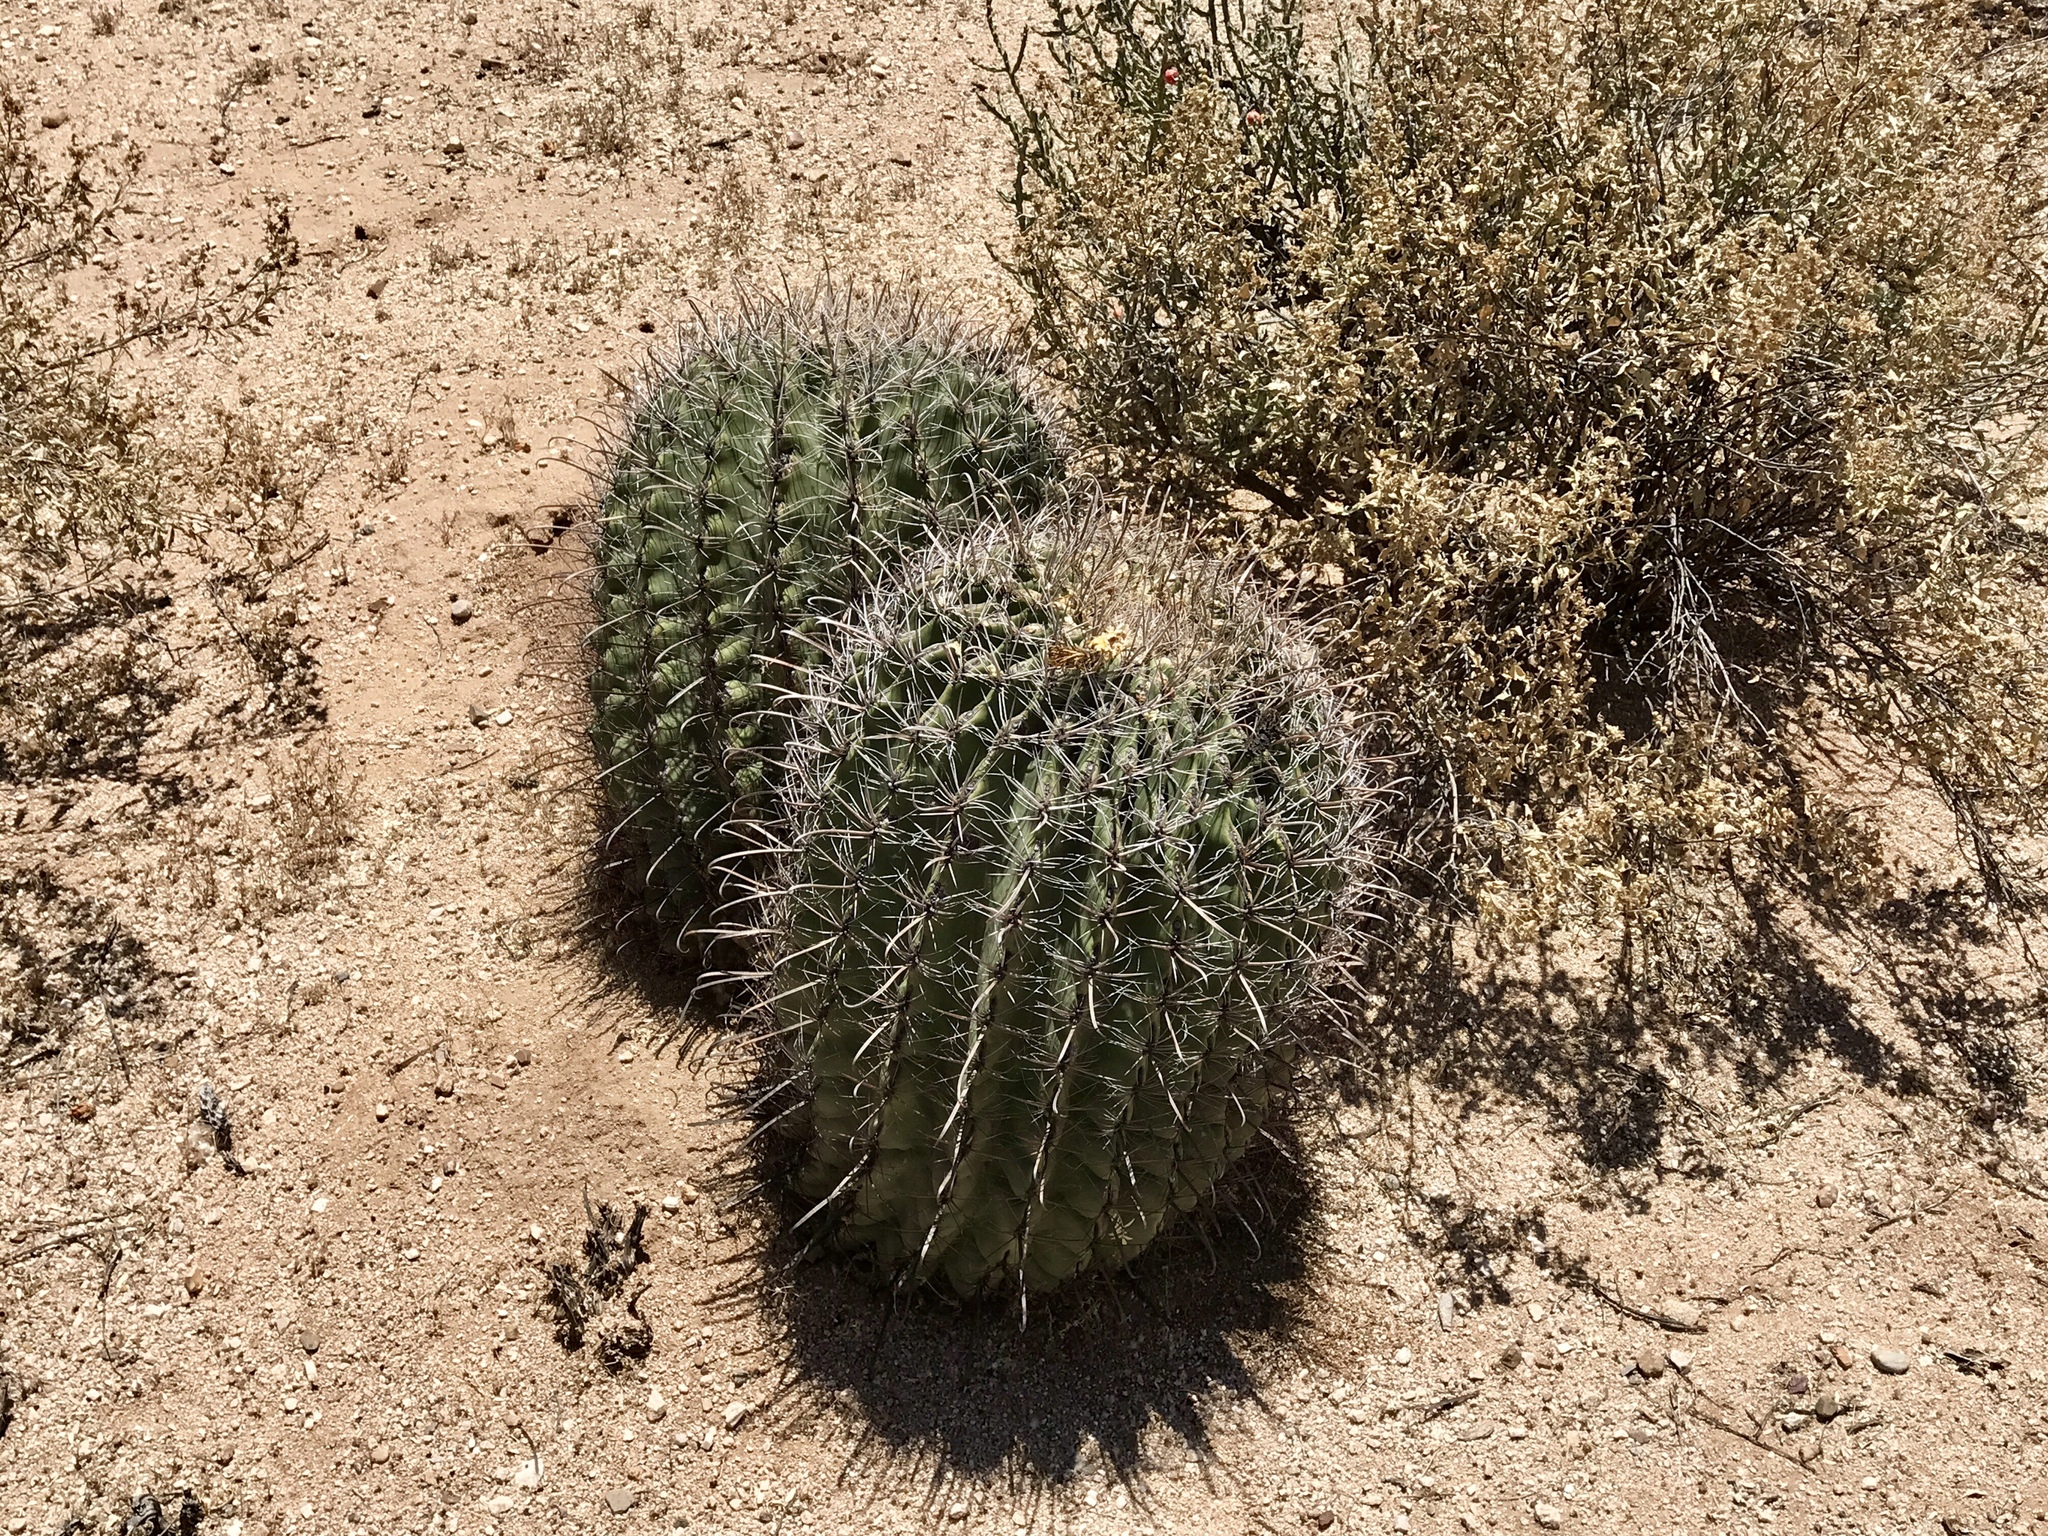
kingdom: Plantae
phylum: Tracheophyta
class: Magnoliopsida
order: Caryophyllales
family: Cactaceae
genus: Ferocactus
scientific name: Ferocactus wislizeni
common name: Candy barrel cactus
